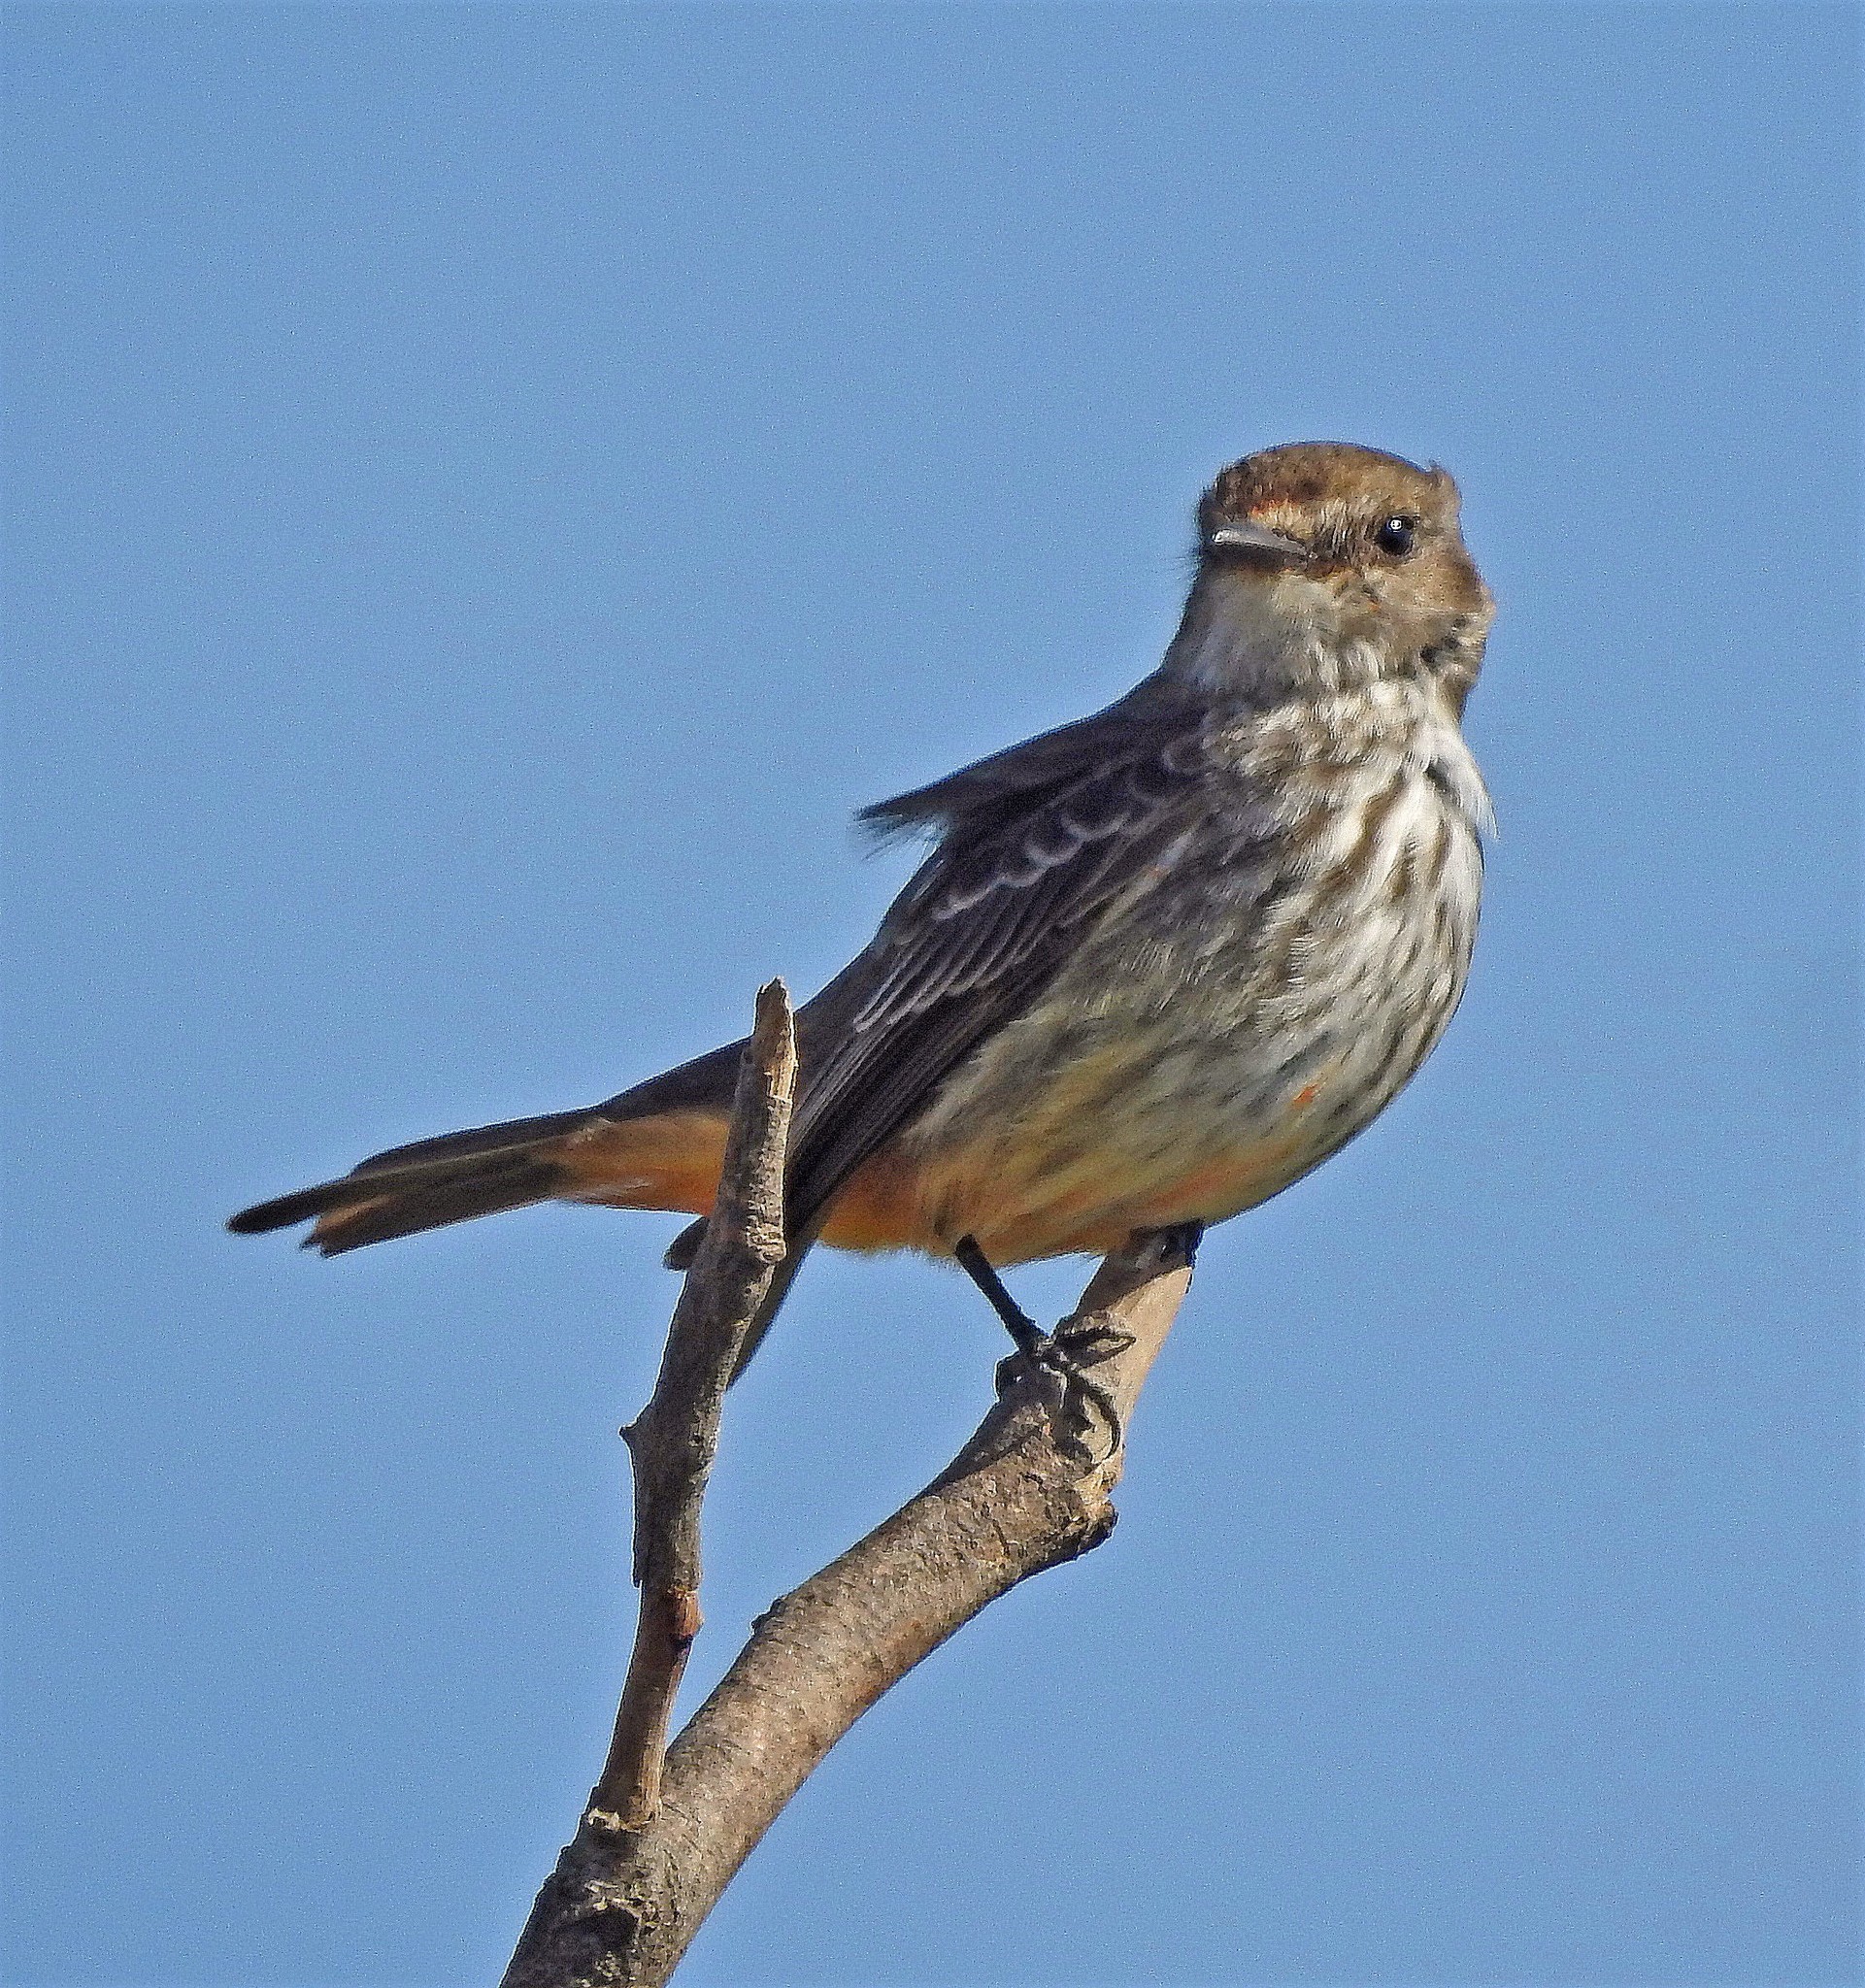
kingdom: Animalia
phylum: Chordata
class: Aves
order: Passeriformes
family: Tyrannidae
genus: Pyrocephalus
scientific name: Pyrocephalus rubinus
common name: Vermilion flycatcher
